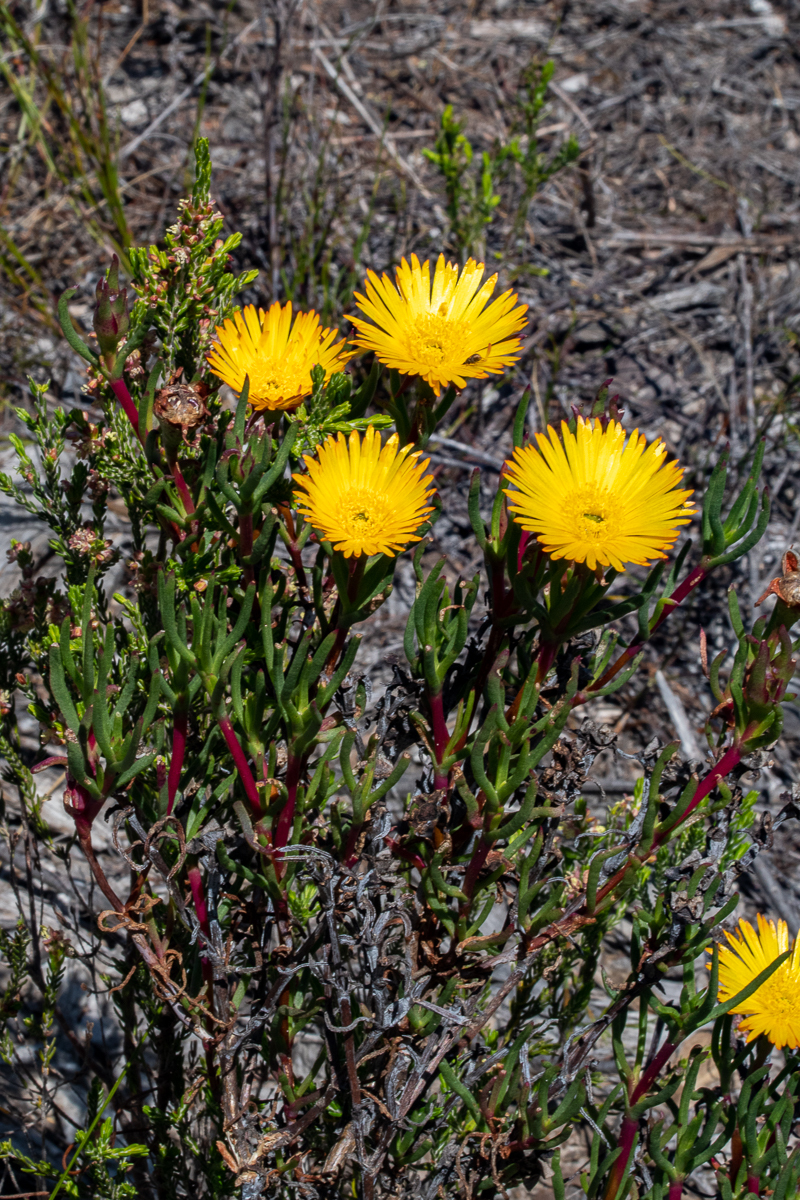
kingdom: Plantae
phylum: Tracheophyta
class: Magnoliopsida
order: Caryophyllales
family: Aizoaceae
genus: Lampranthus
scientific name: Lampranthus bicolor
